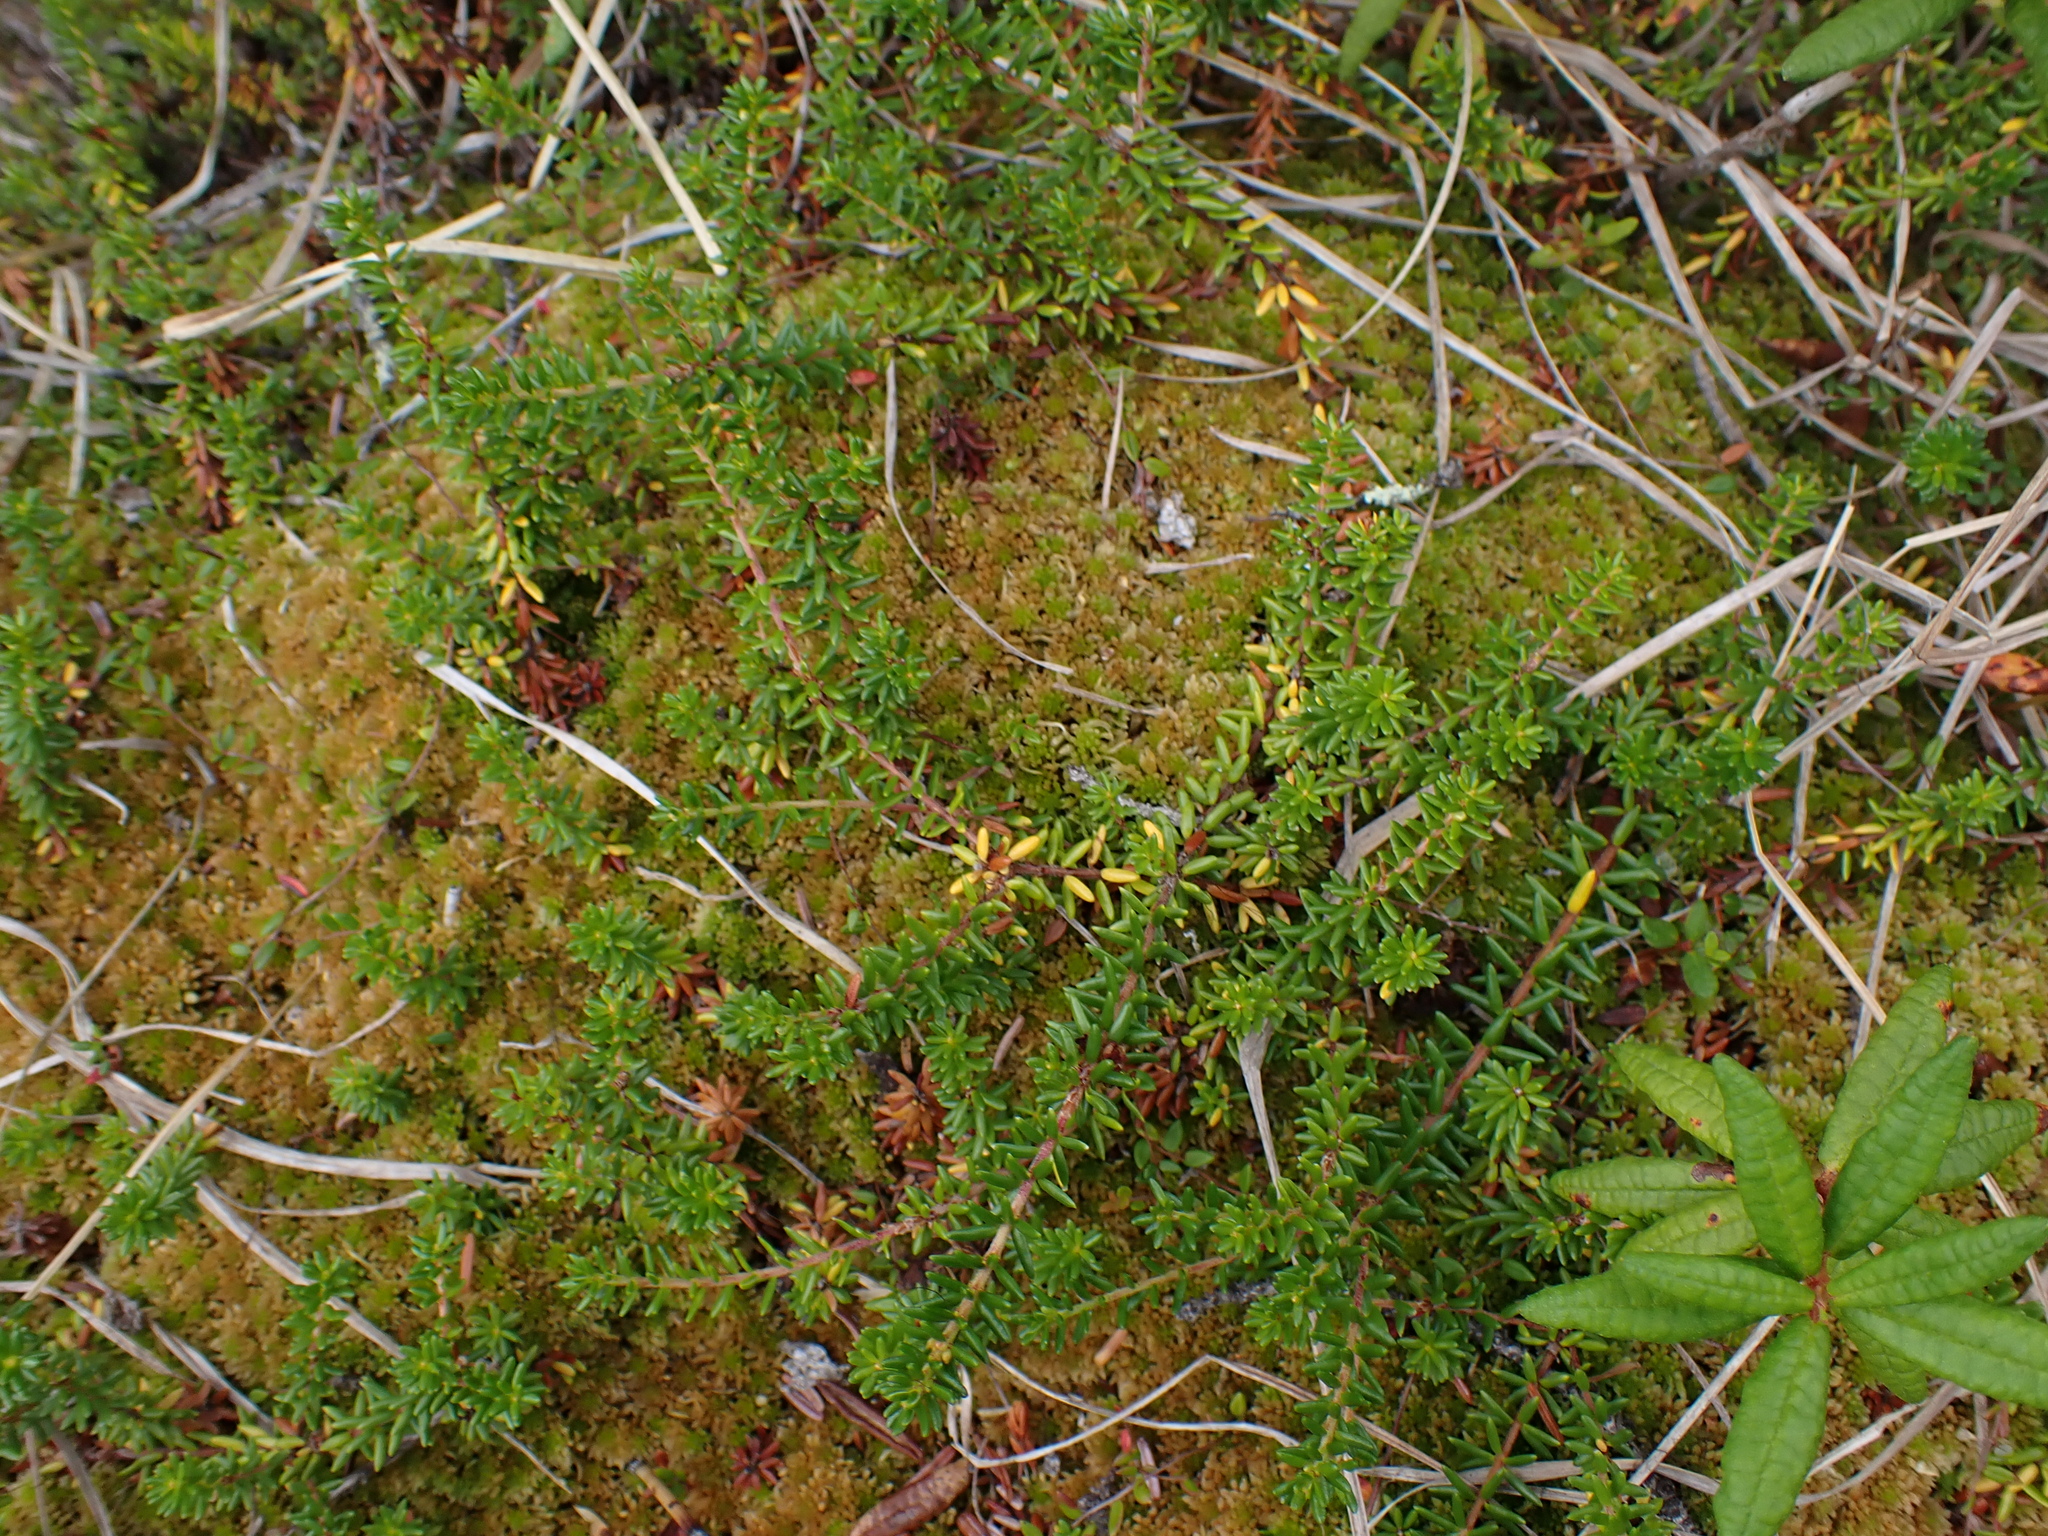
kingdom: Plantae
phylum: Tracheophyta
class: Magnoliopsida
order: Ericales
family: Ericaceae
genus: Empetrum
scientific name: Empetrum nigrum
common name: Black crowberry
